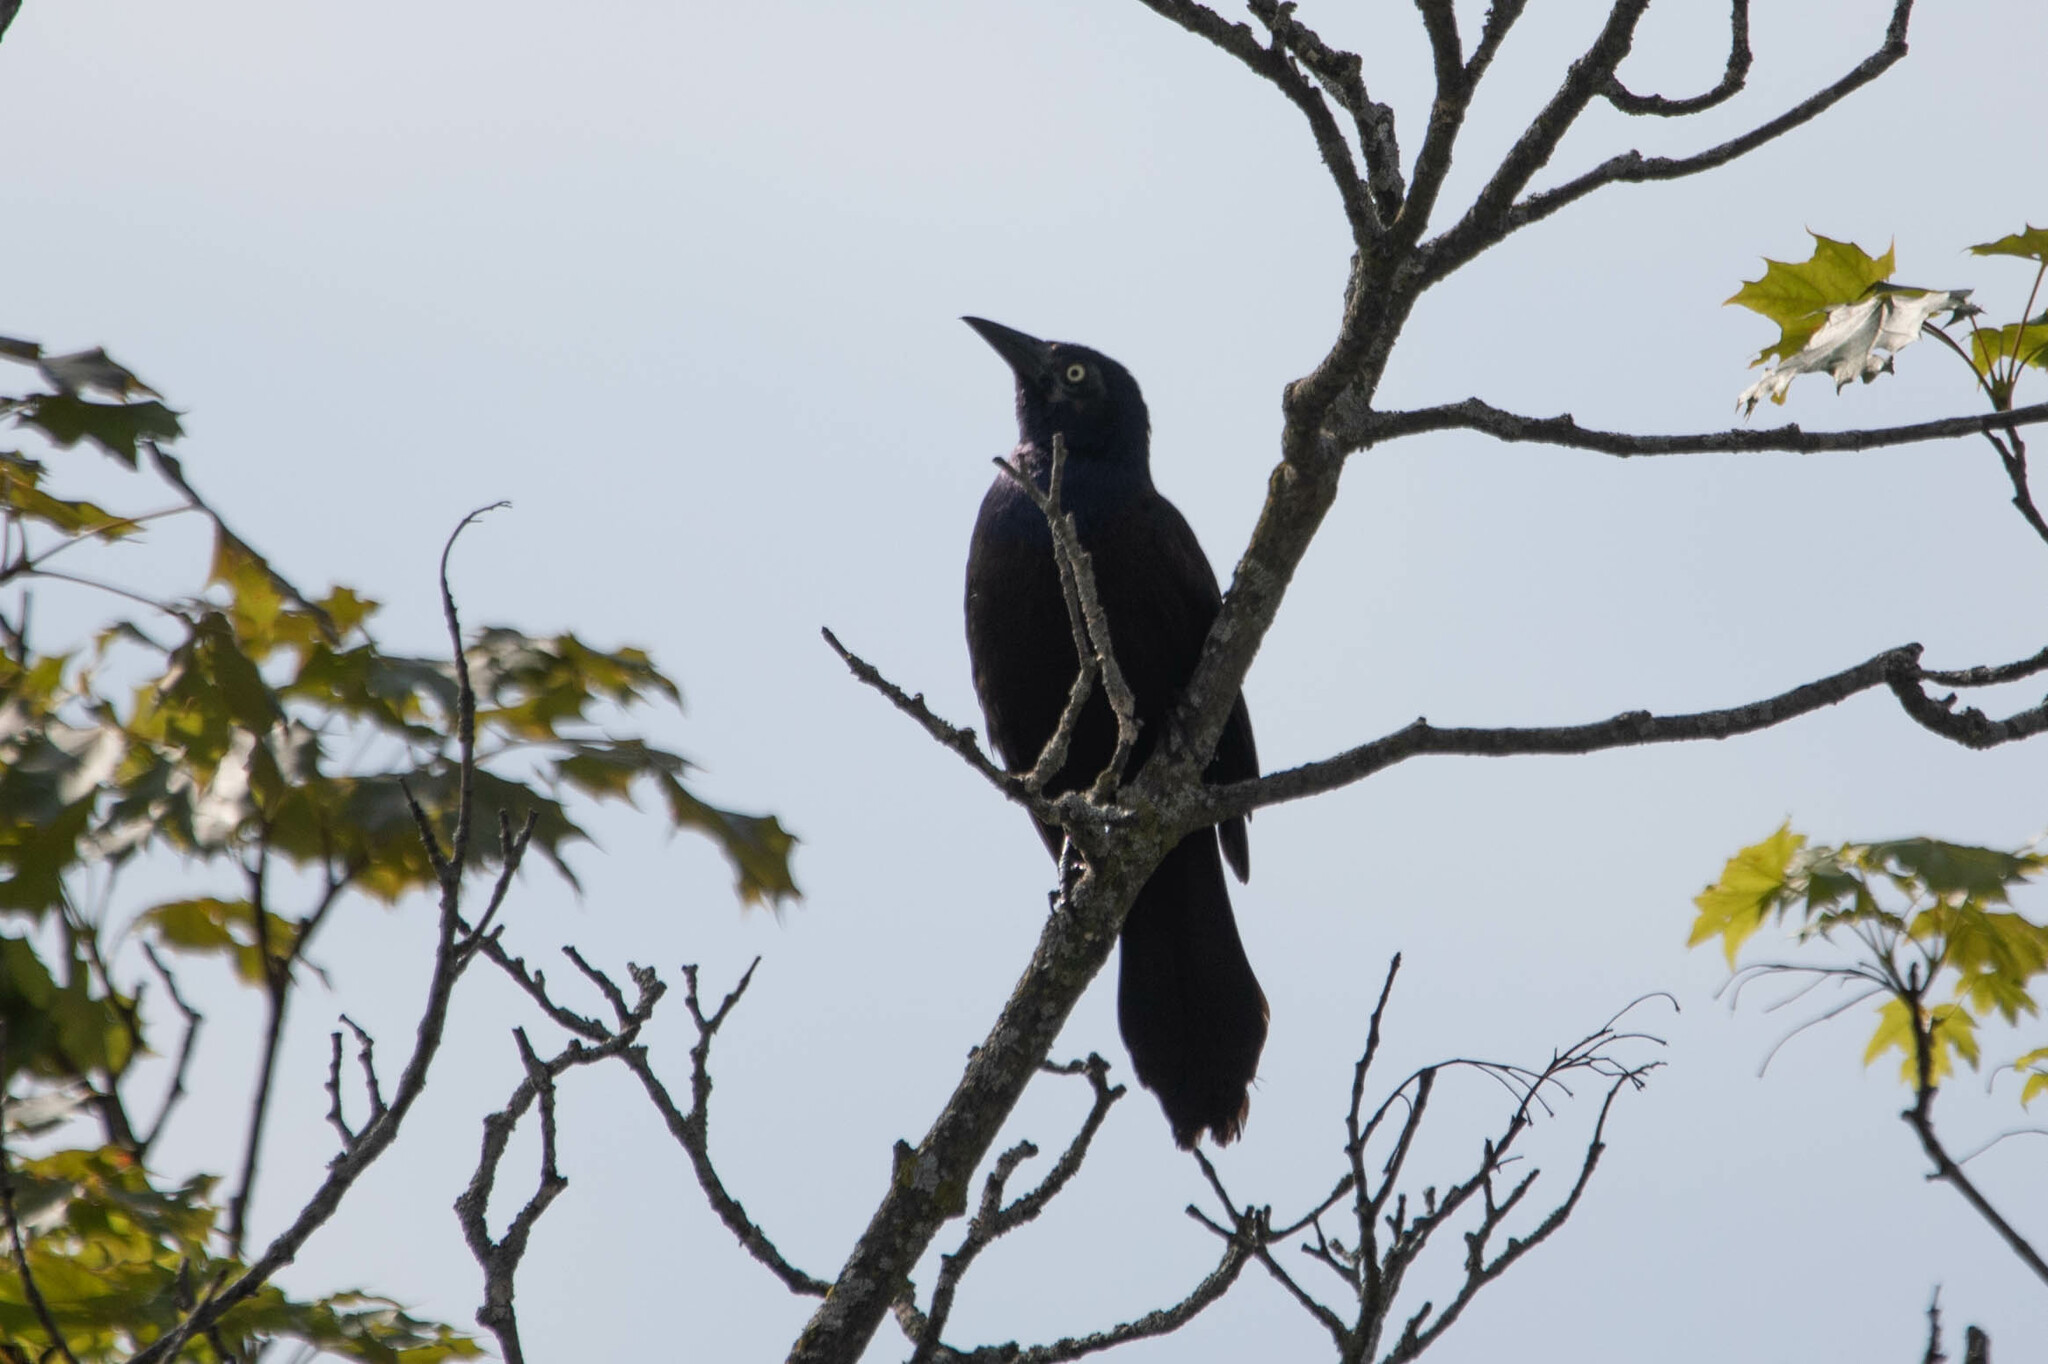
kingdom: Animalia
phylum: Chordata
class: Aves
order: Passeriformes
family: Icteridae
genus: Quiscalus
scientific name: Quiscalus quiscula
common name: Common grackle
